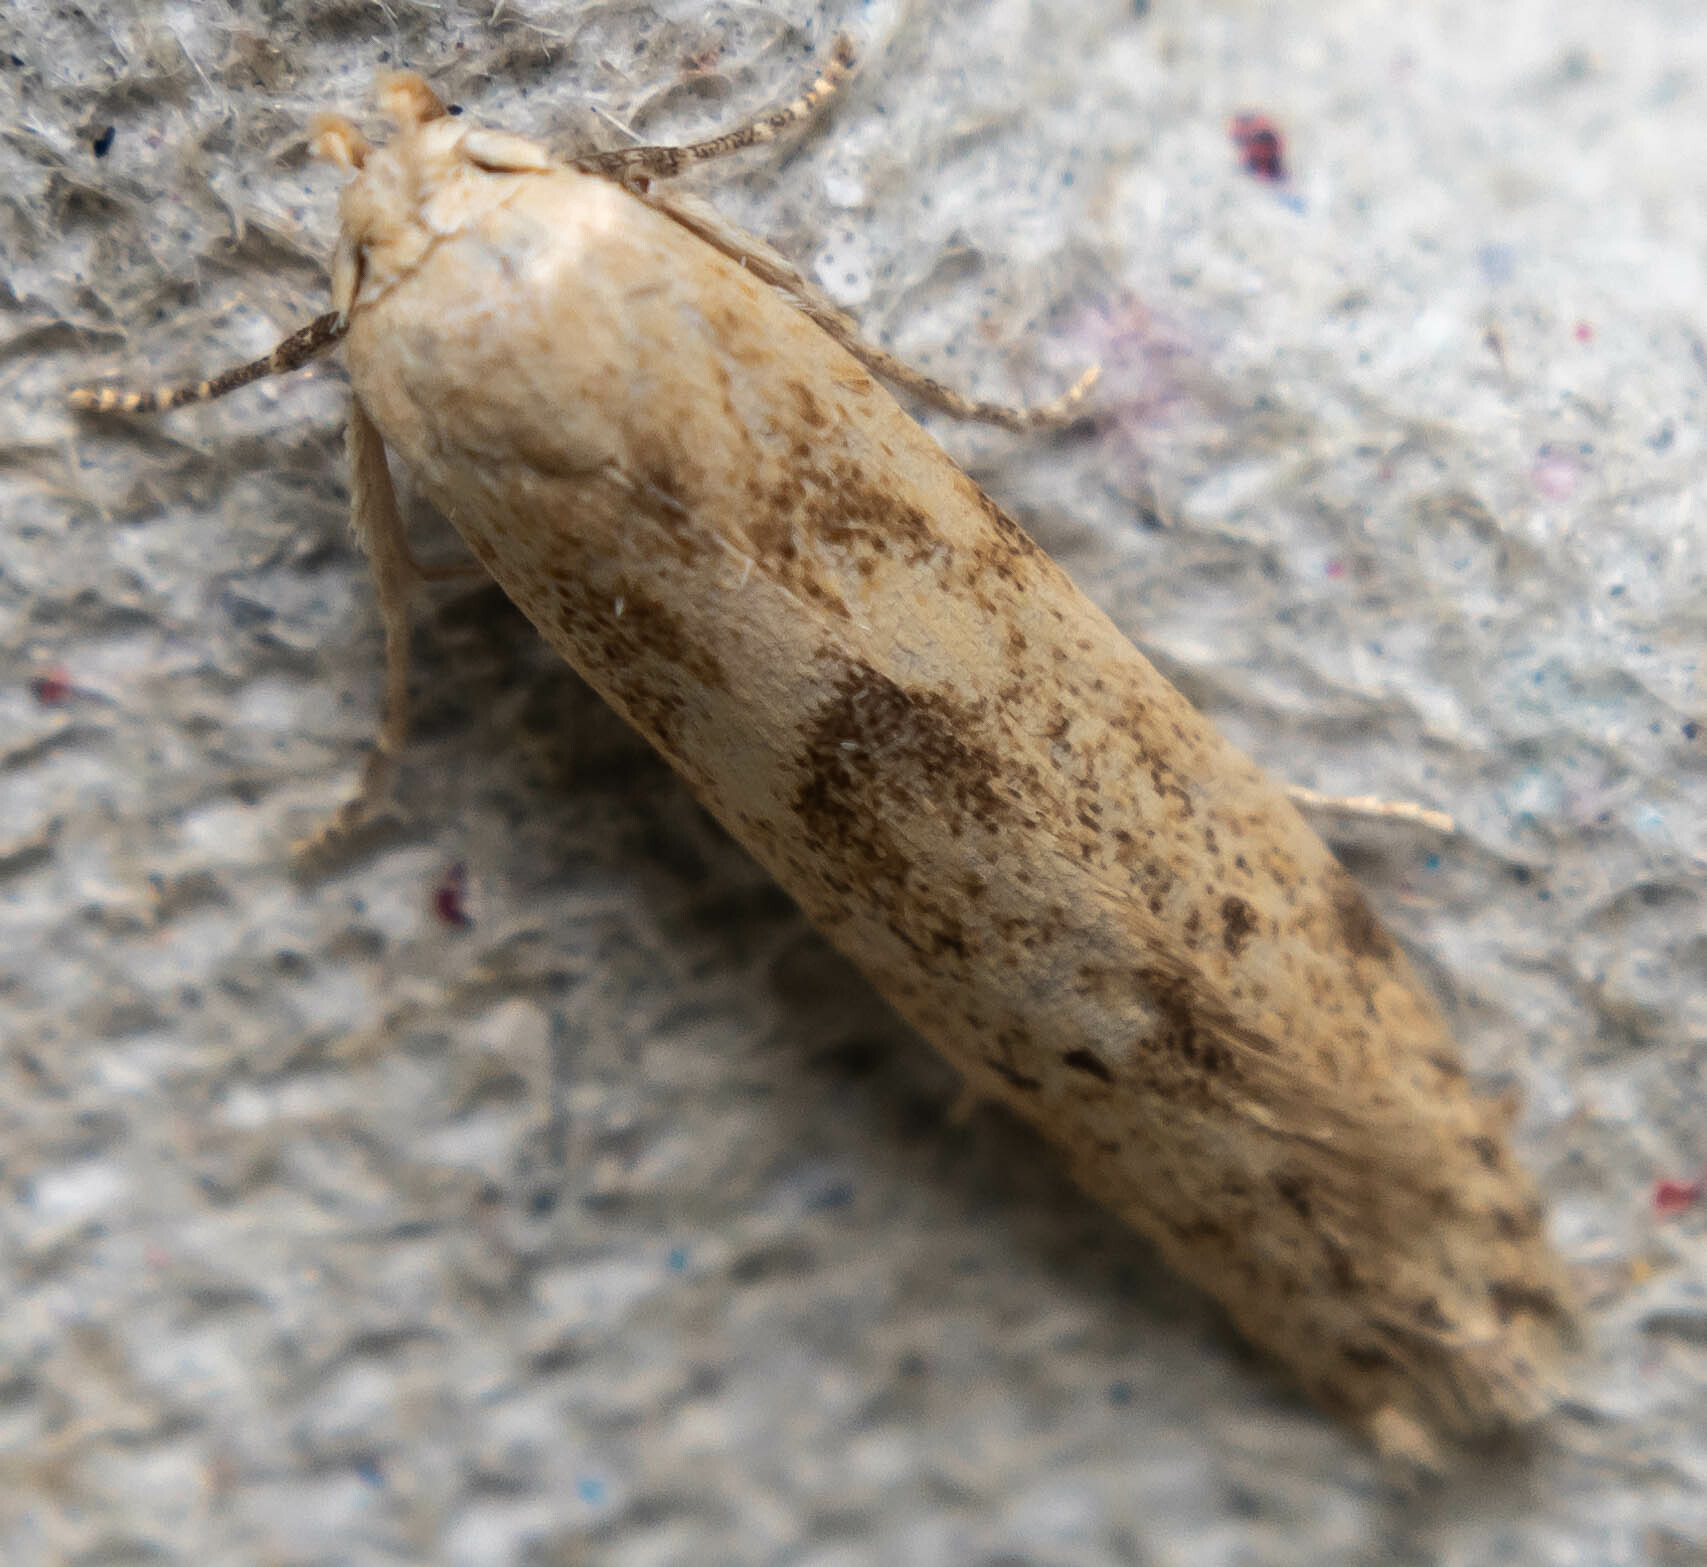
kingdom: Animalia
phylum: Arthropoda
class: Insecta
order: Lepidoptera
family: Blastobasidae
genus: Blastobasis
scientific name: Blastobasis lacticolella
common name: London dowd
